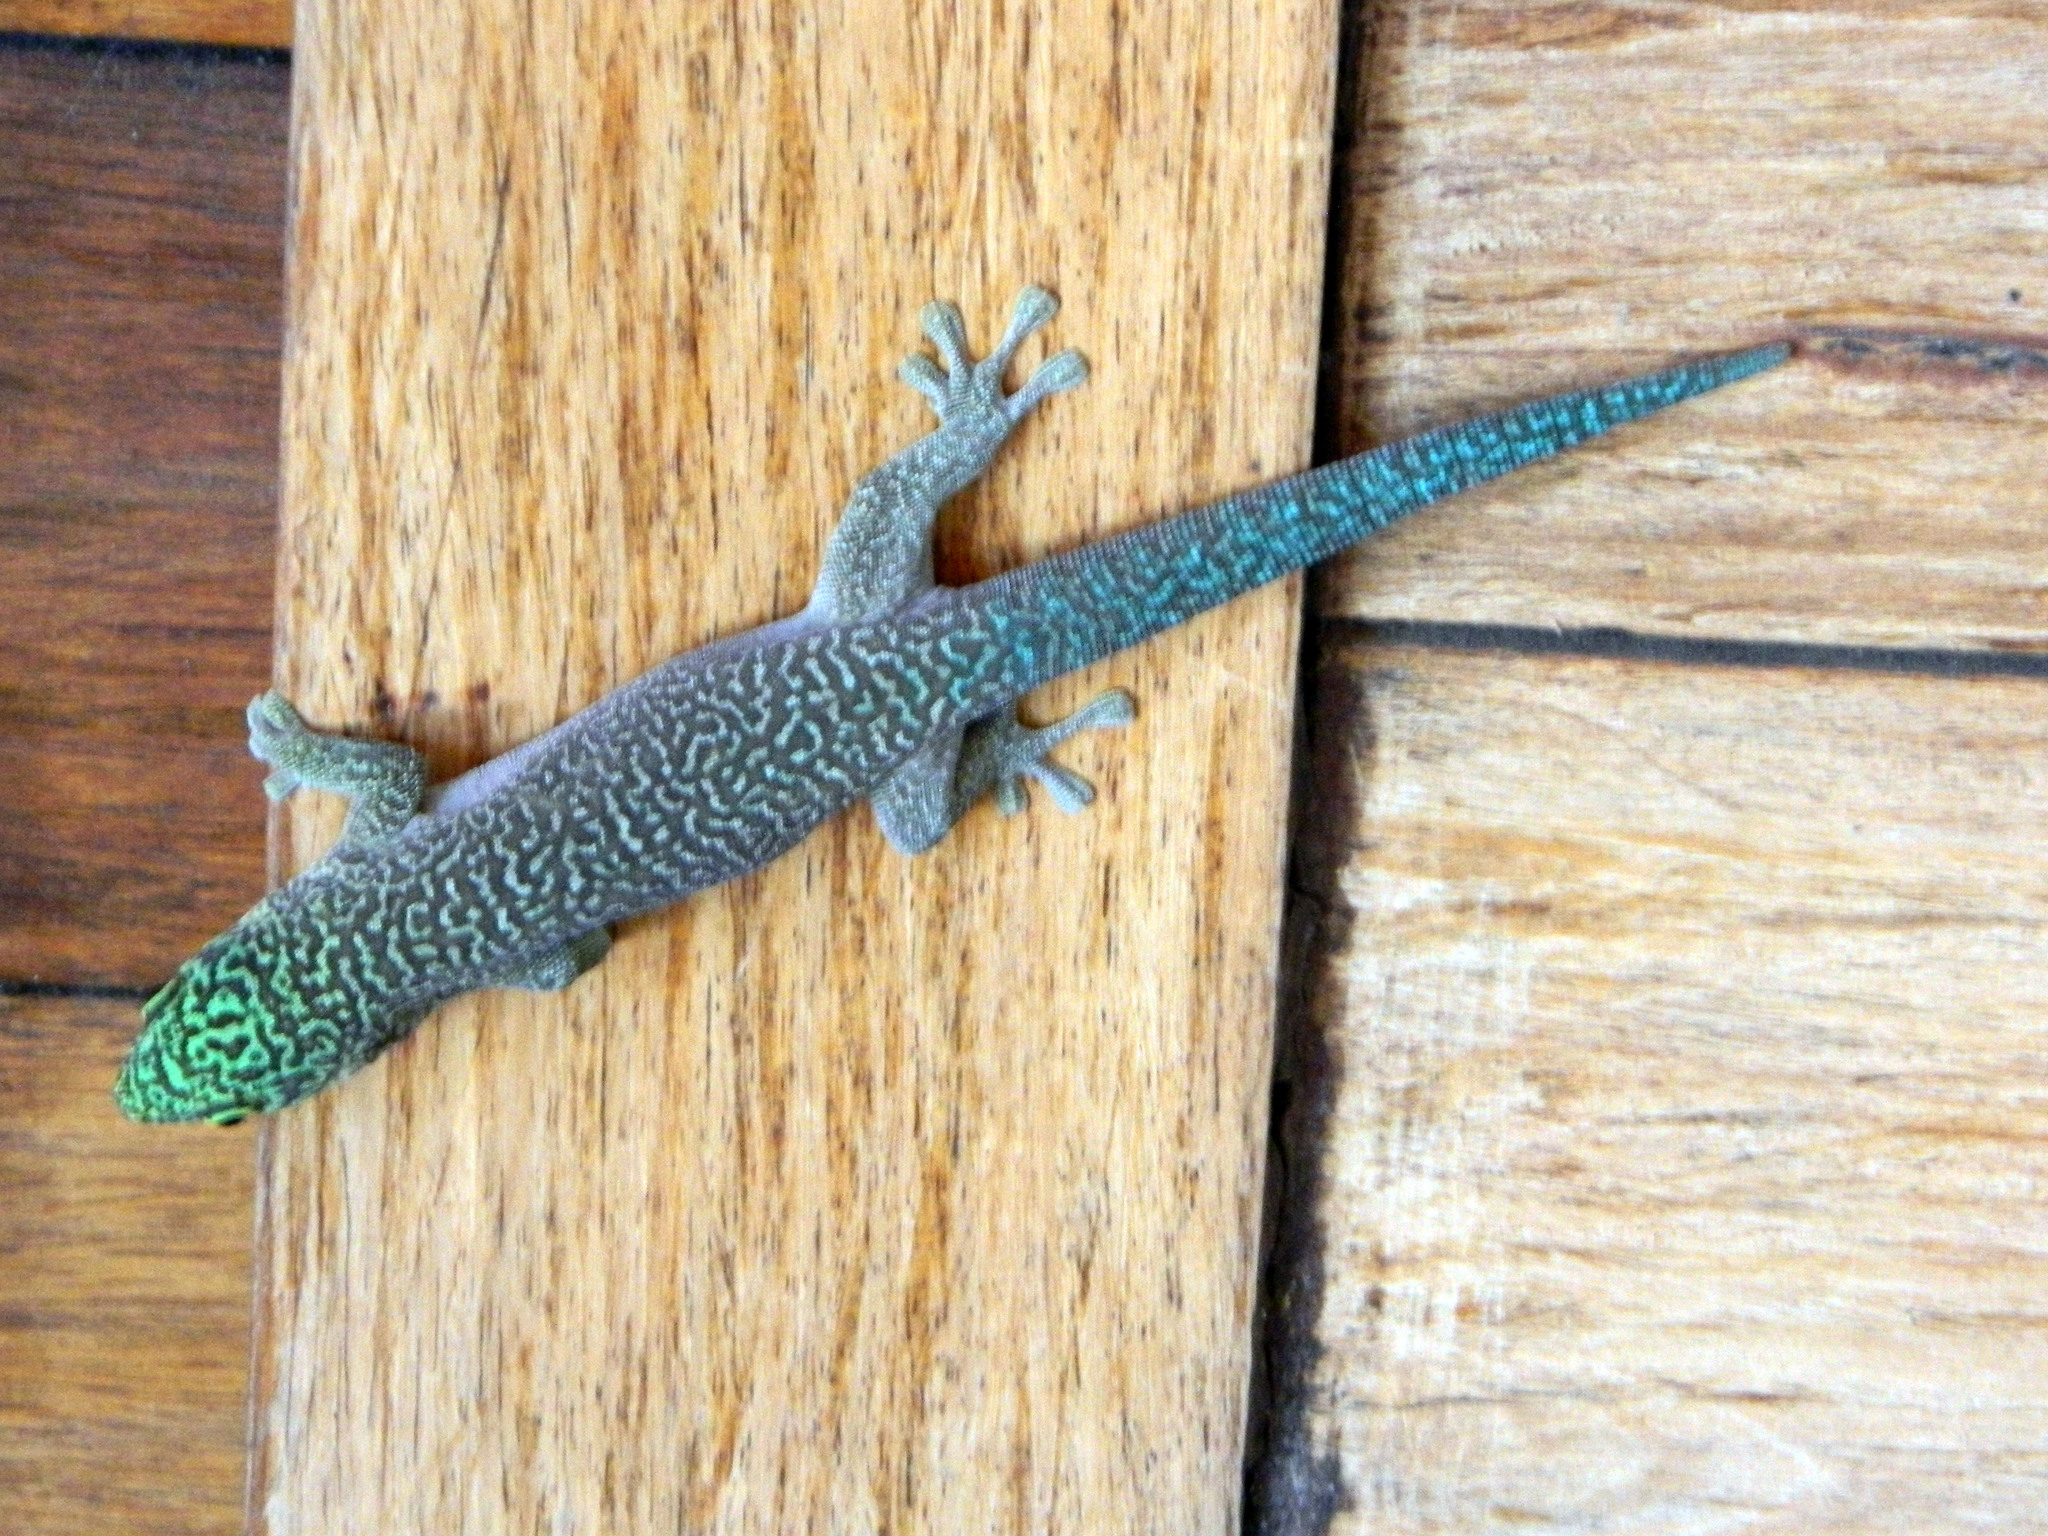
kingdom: Animalia
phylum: Chordata
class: Squamata
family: Gekkonidae
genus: Phelsuma
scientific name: Phelsuma standingi
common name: Standing's day gecko
